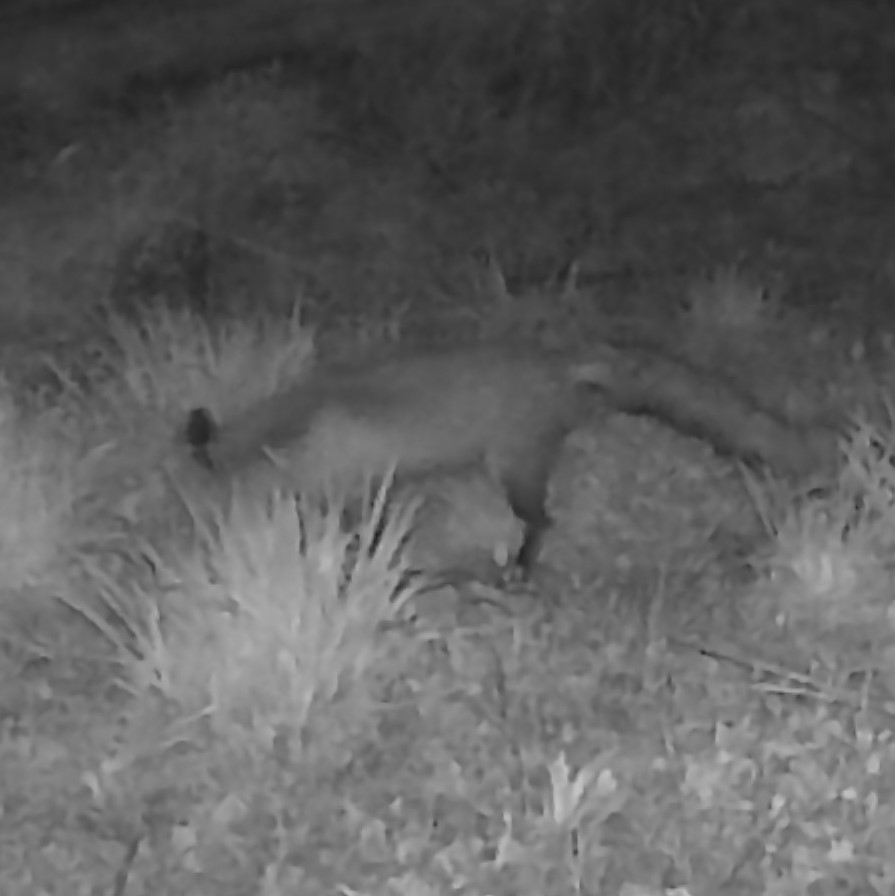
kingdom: Animalia
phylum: Chordata
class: Mammalia
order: Carnivora
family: Canidae
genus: Vulpes
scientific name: Vulpes vulpes
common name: Red fox
